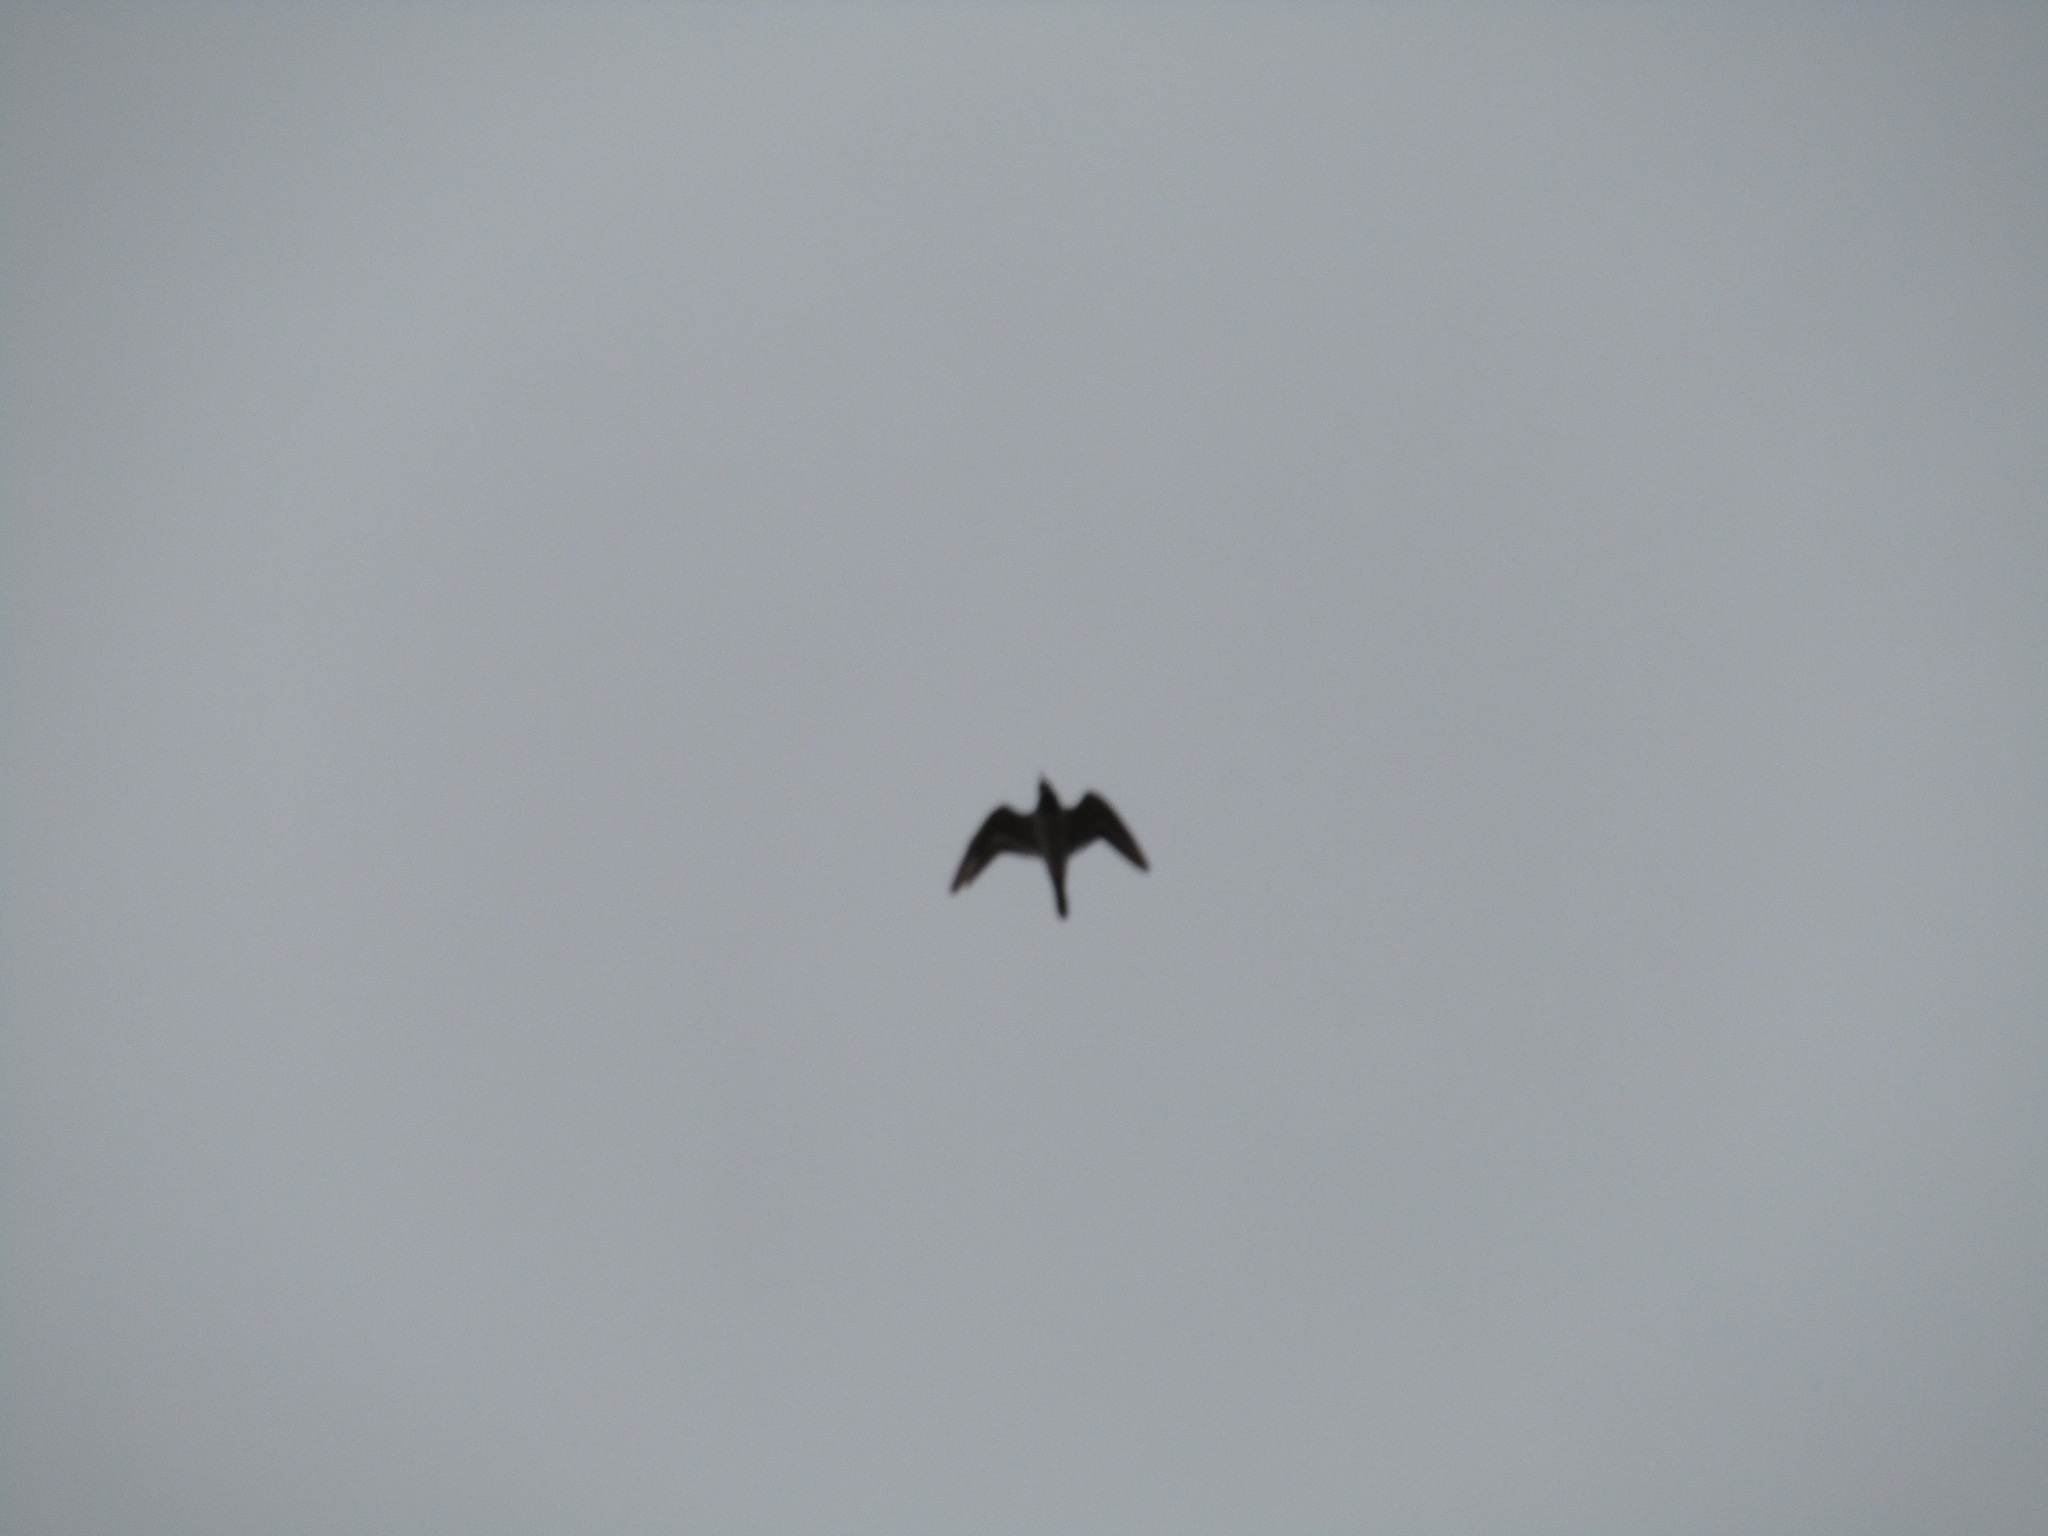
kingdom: Animalia
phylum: Chordata
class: Aves
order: Charadriiformes
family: Charadriidae
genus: Charadrius
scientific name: Charadrius vociferus
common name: Killdeer
